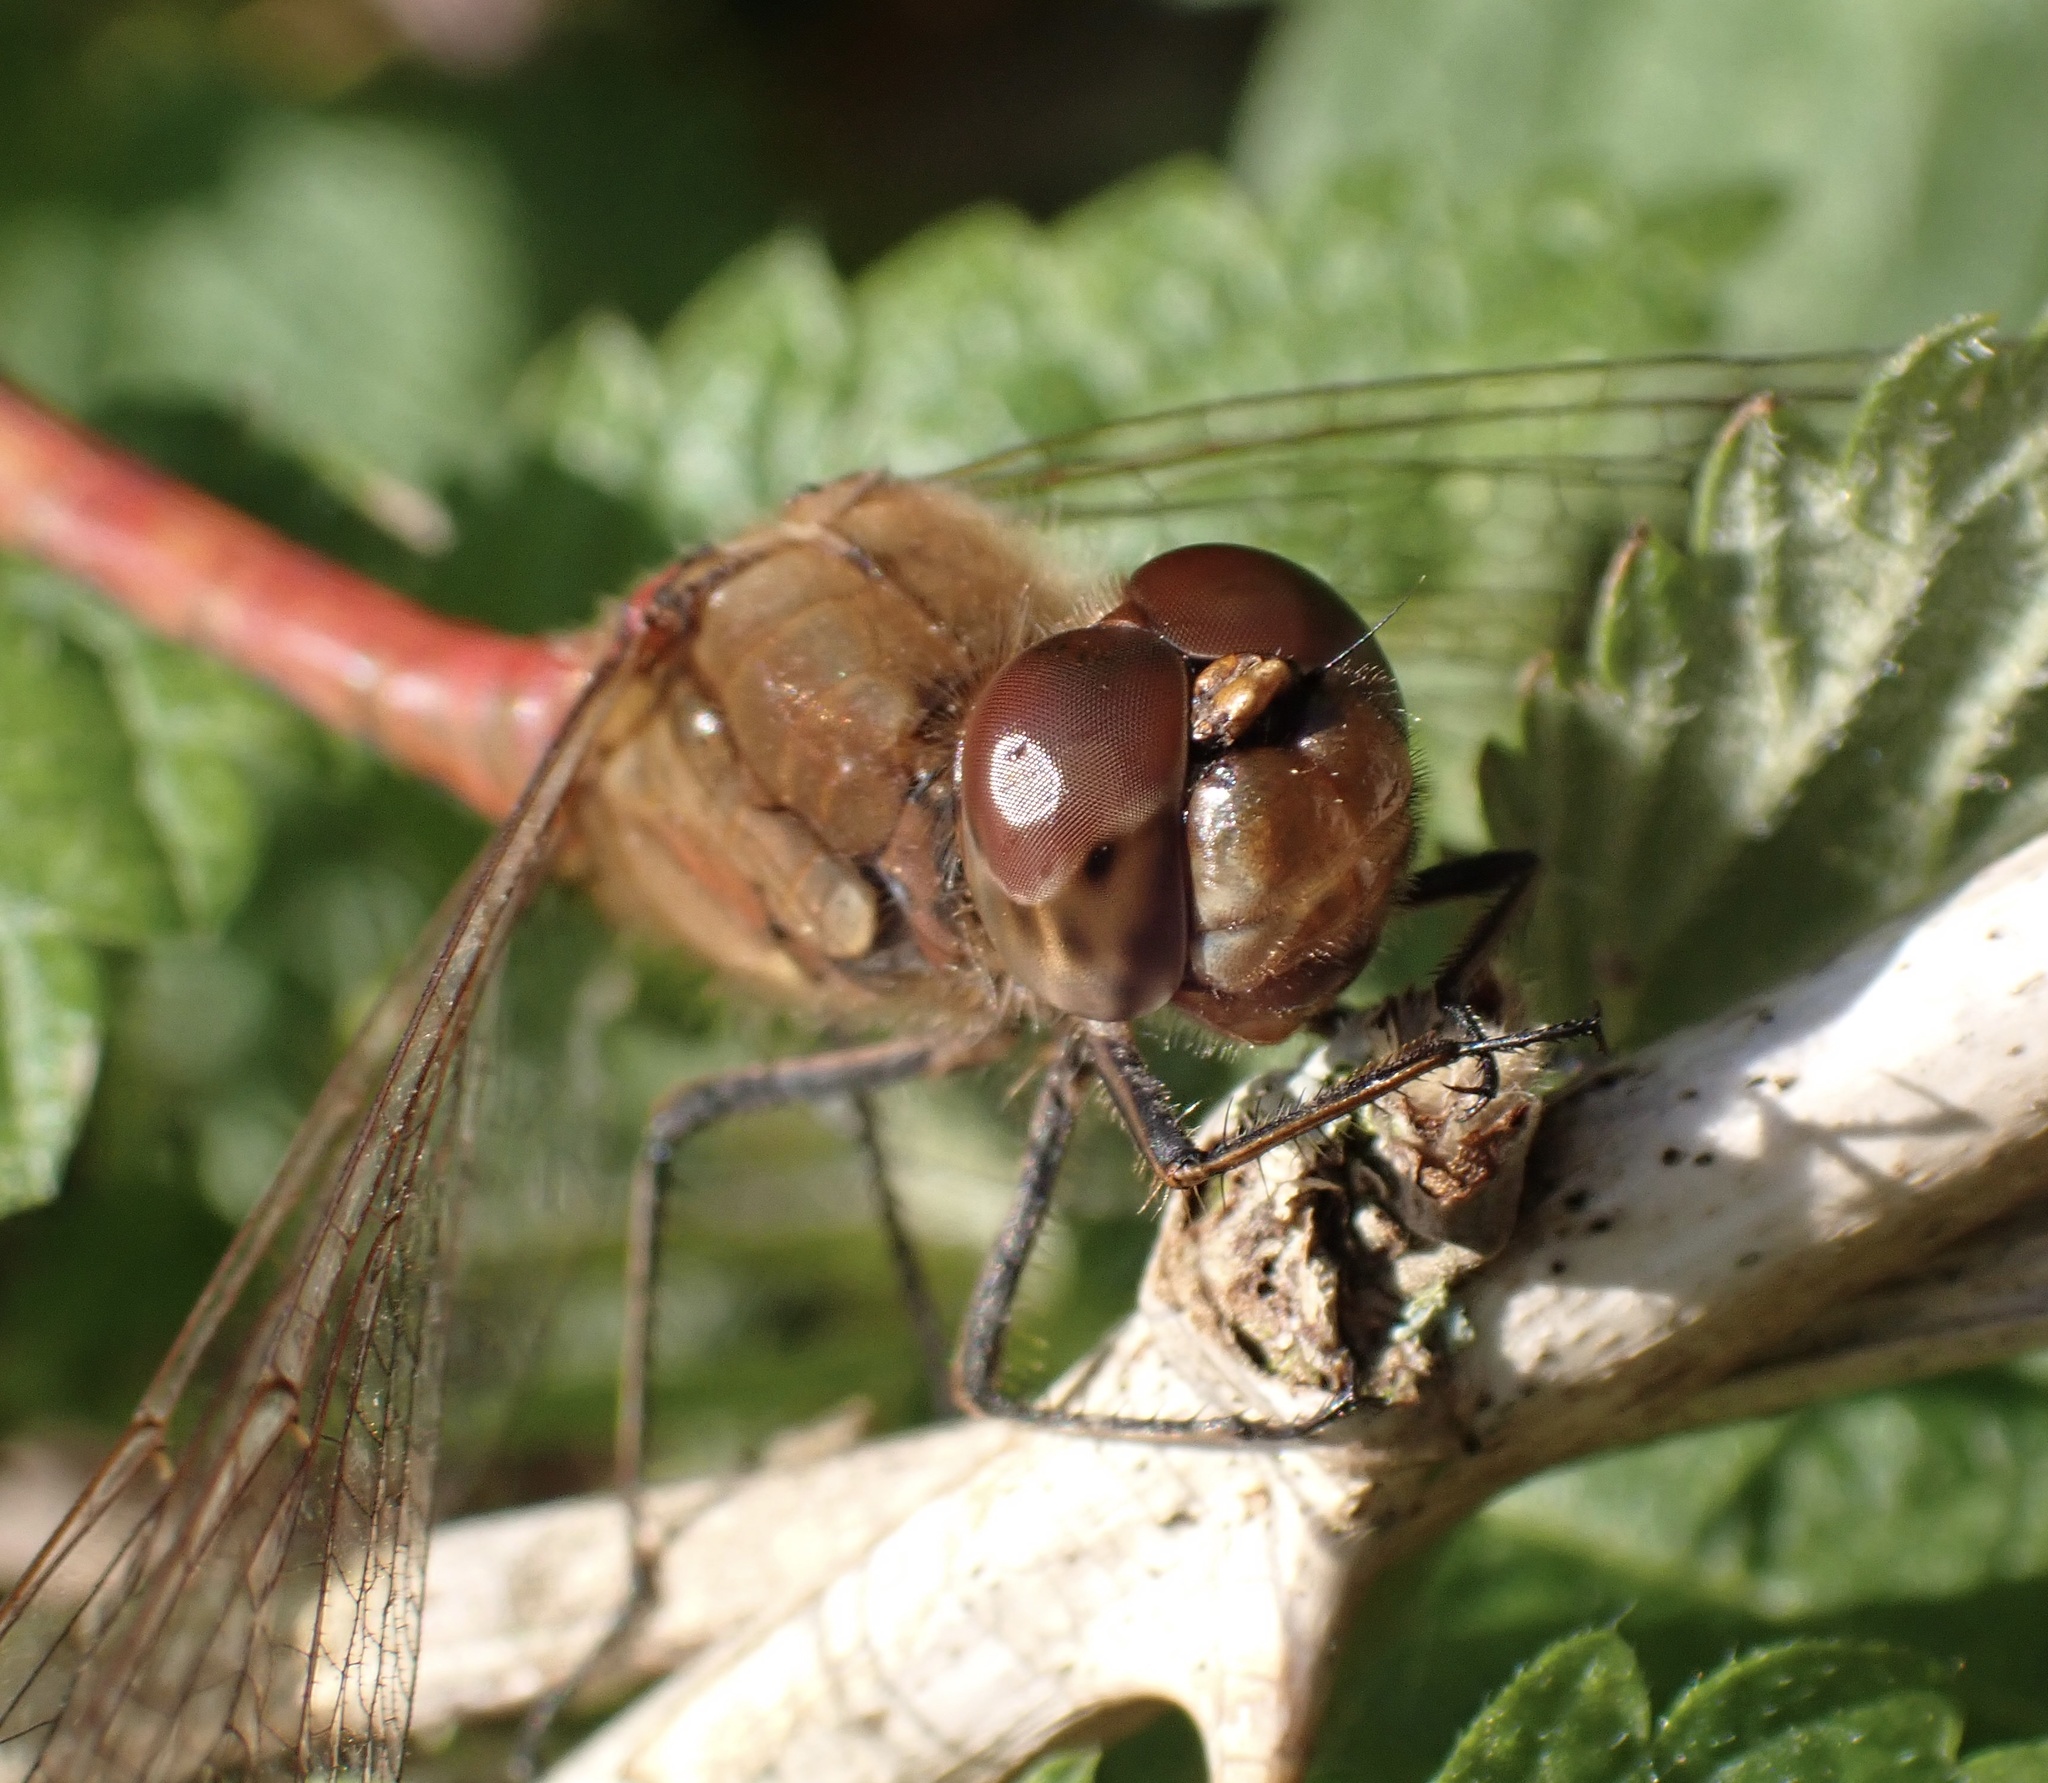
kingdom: Animalia
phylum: Arthropoda
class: Insecta
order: Odonata
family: Libellulidae
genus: Sympetrum
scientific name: Sympetrum striolatum
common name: Common darter
